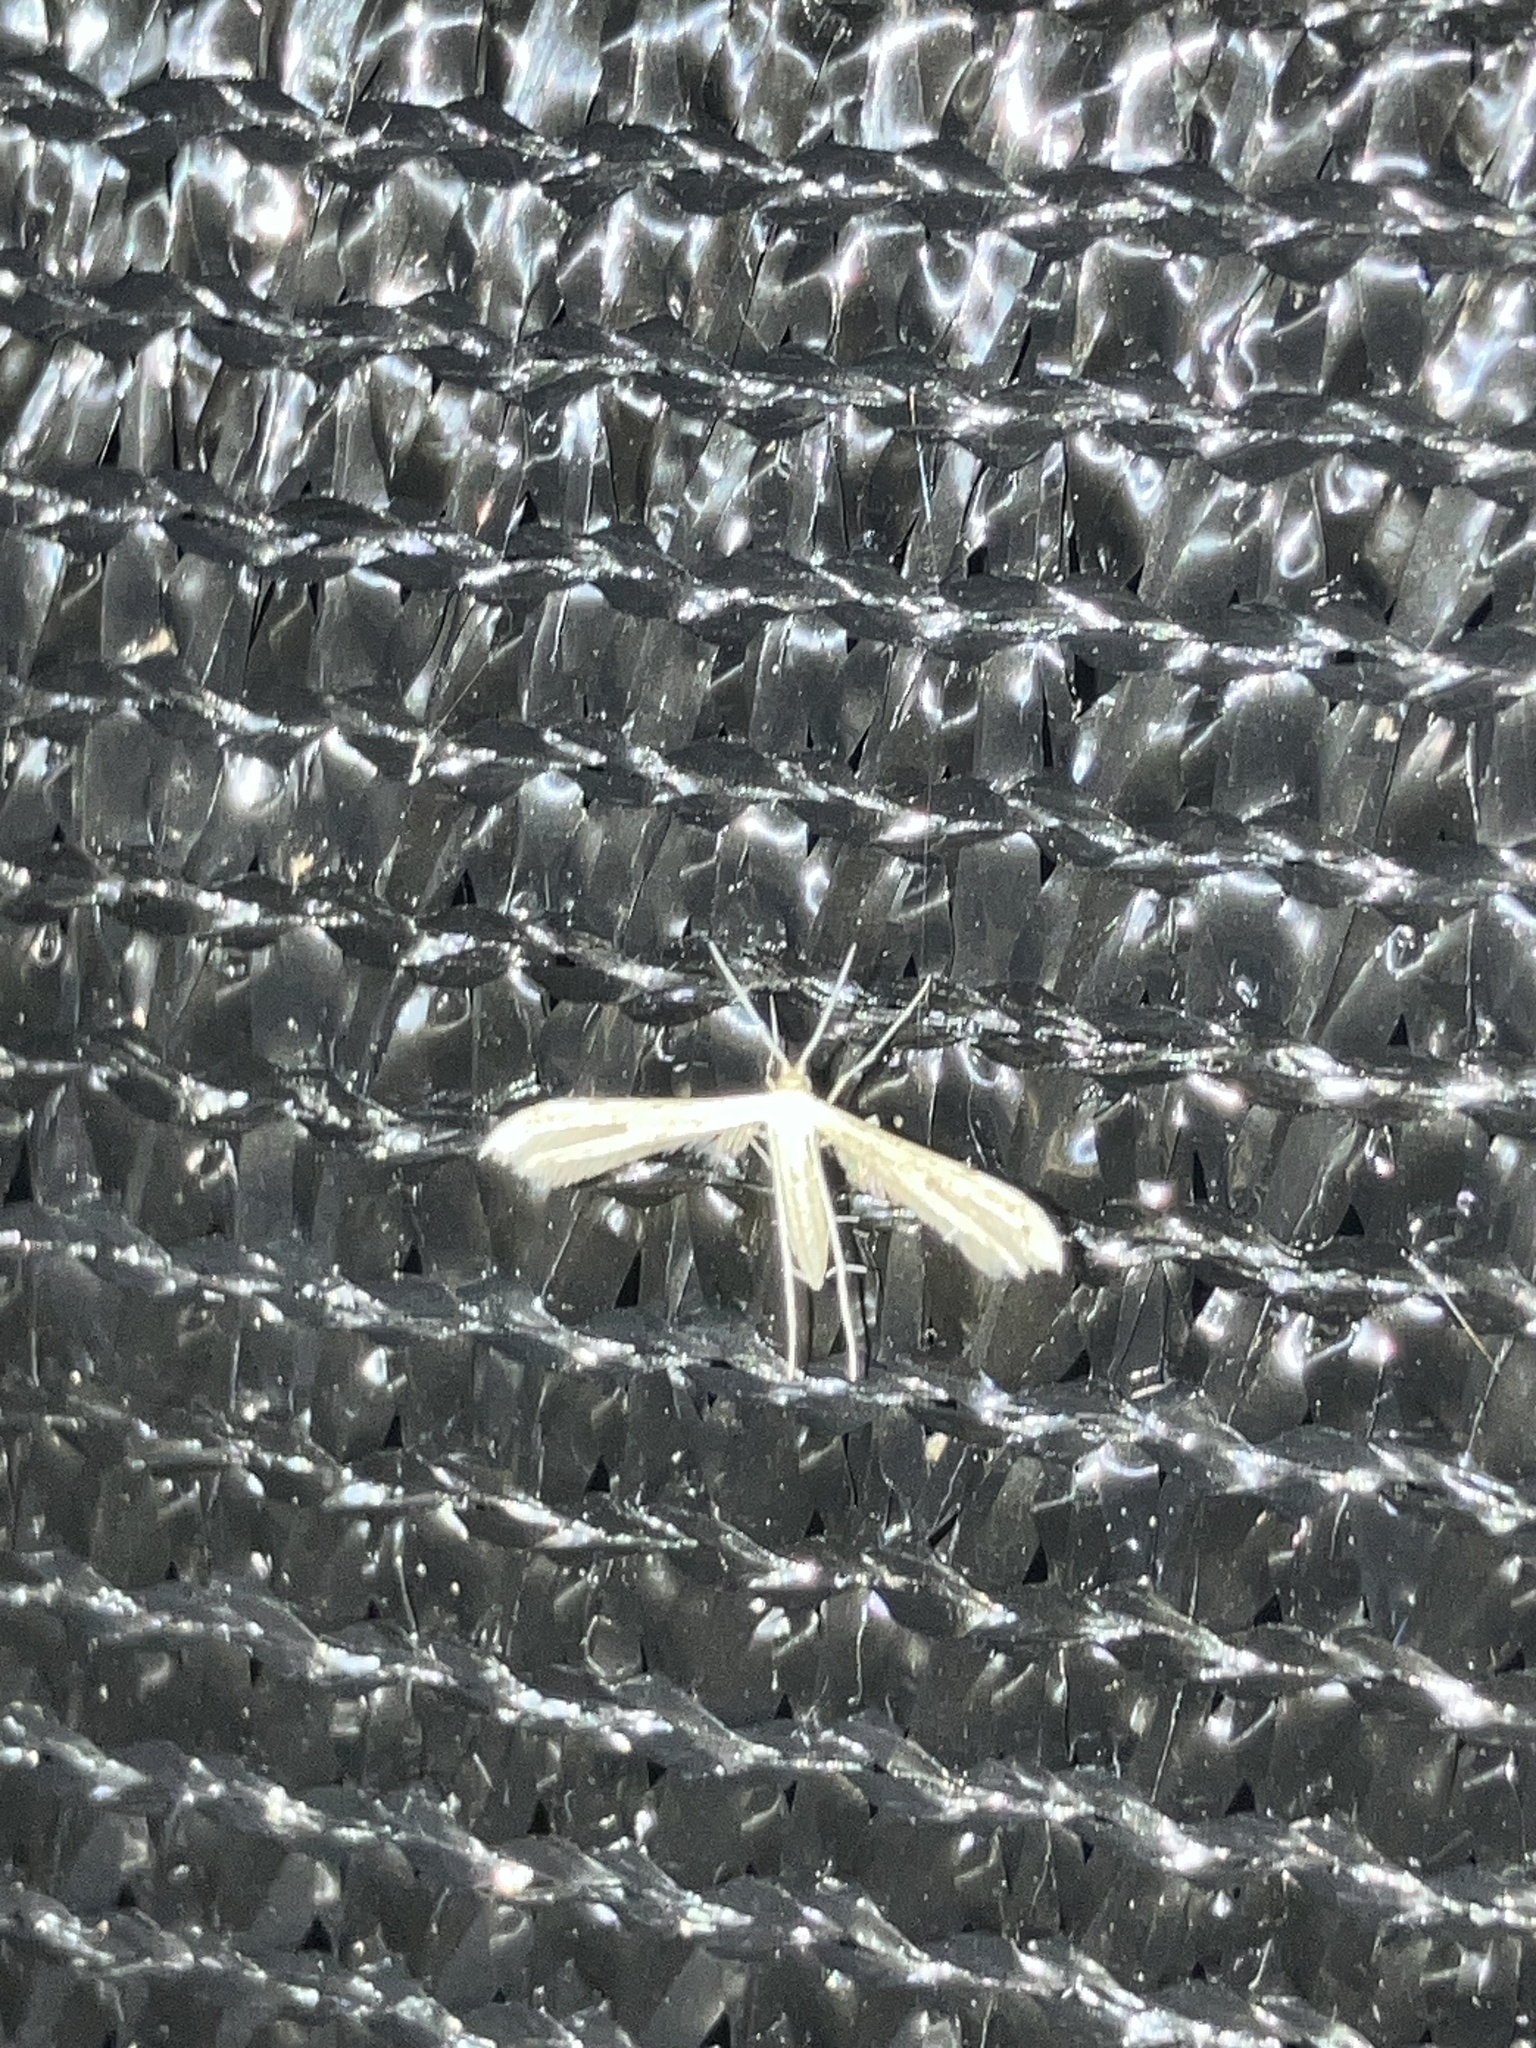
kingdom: Animalia
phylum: Arthropoda
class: Insecta
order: Lepidoptera
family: Pterophoridae
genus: Adaina
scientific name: Adaina
